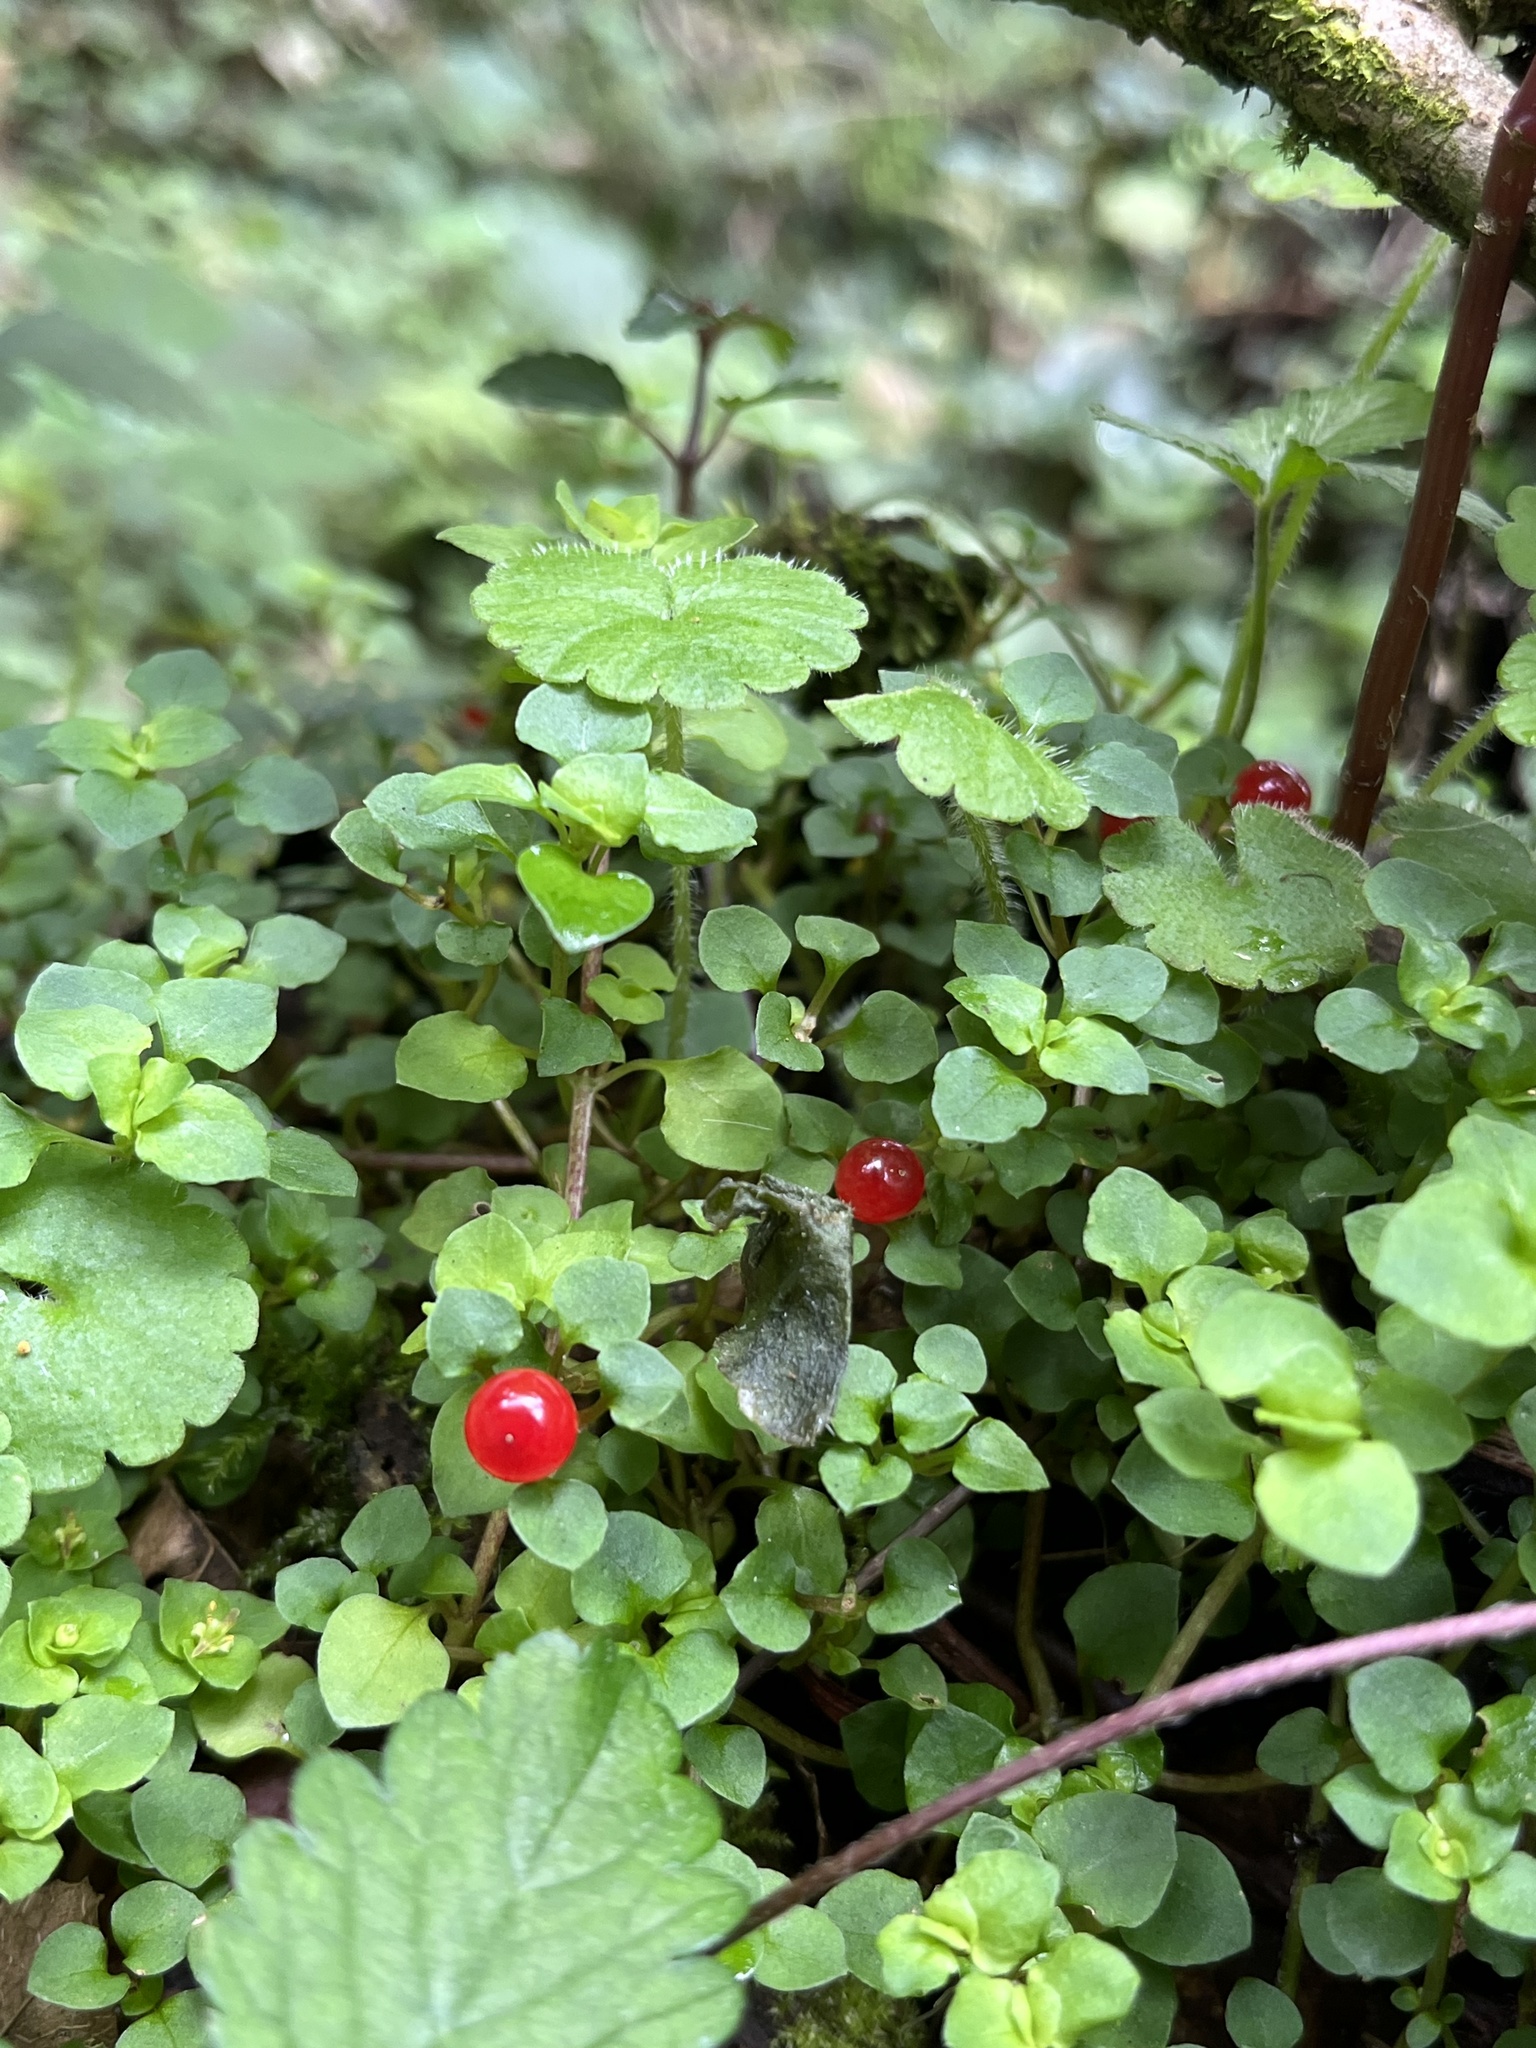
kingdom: Plantae
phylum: Tracheophyta
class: Magnoliopsida
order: Gentianales
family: Rubiaceae
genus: Nertera
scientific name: Nertera granadensis
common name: Beadplant
